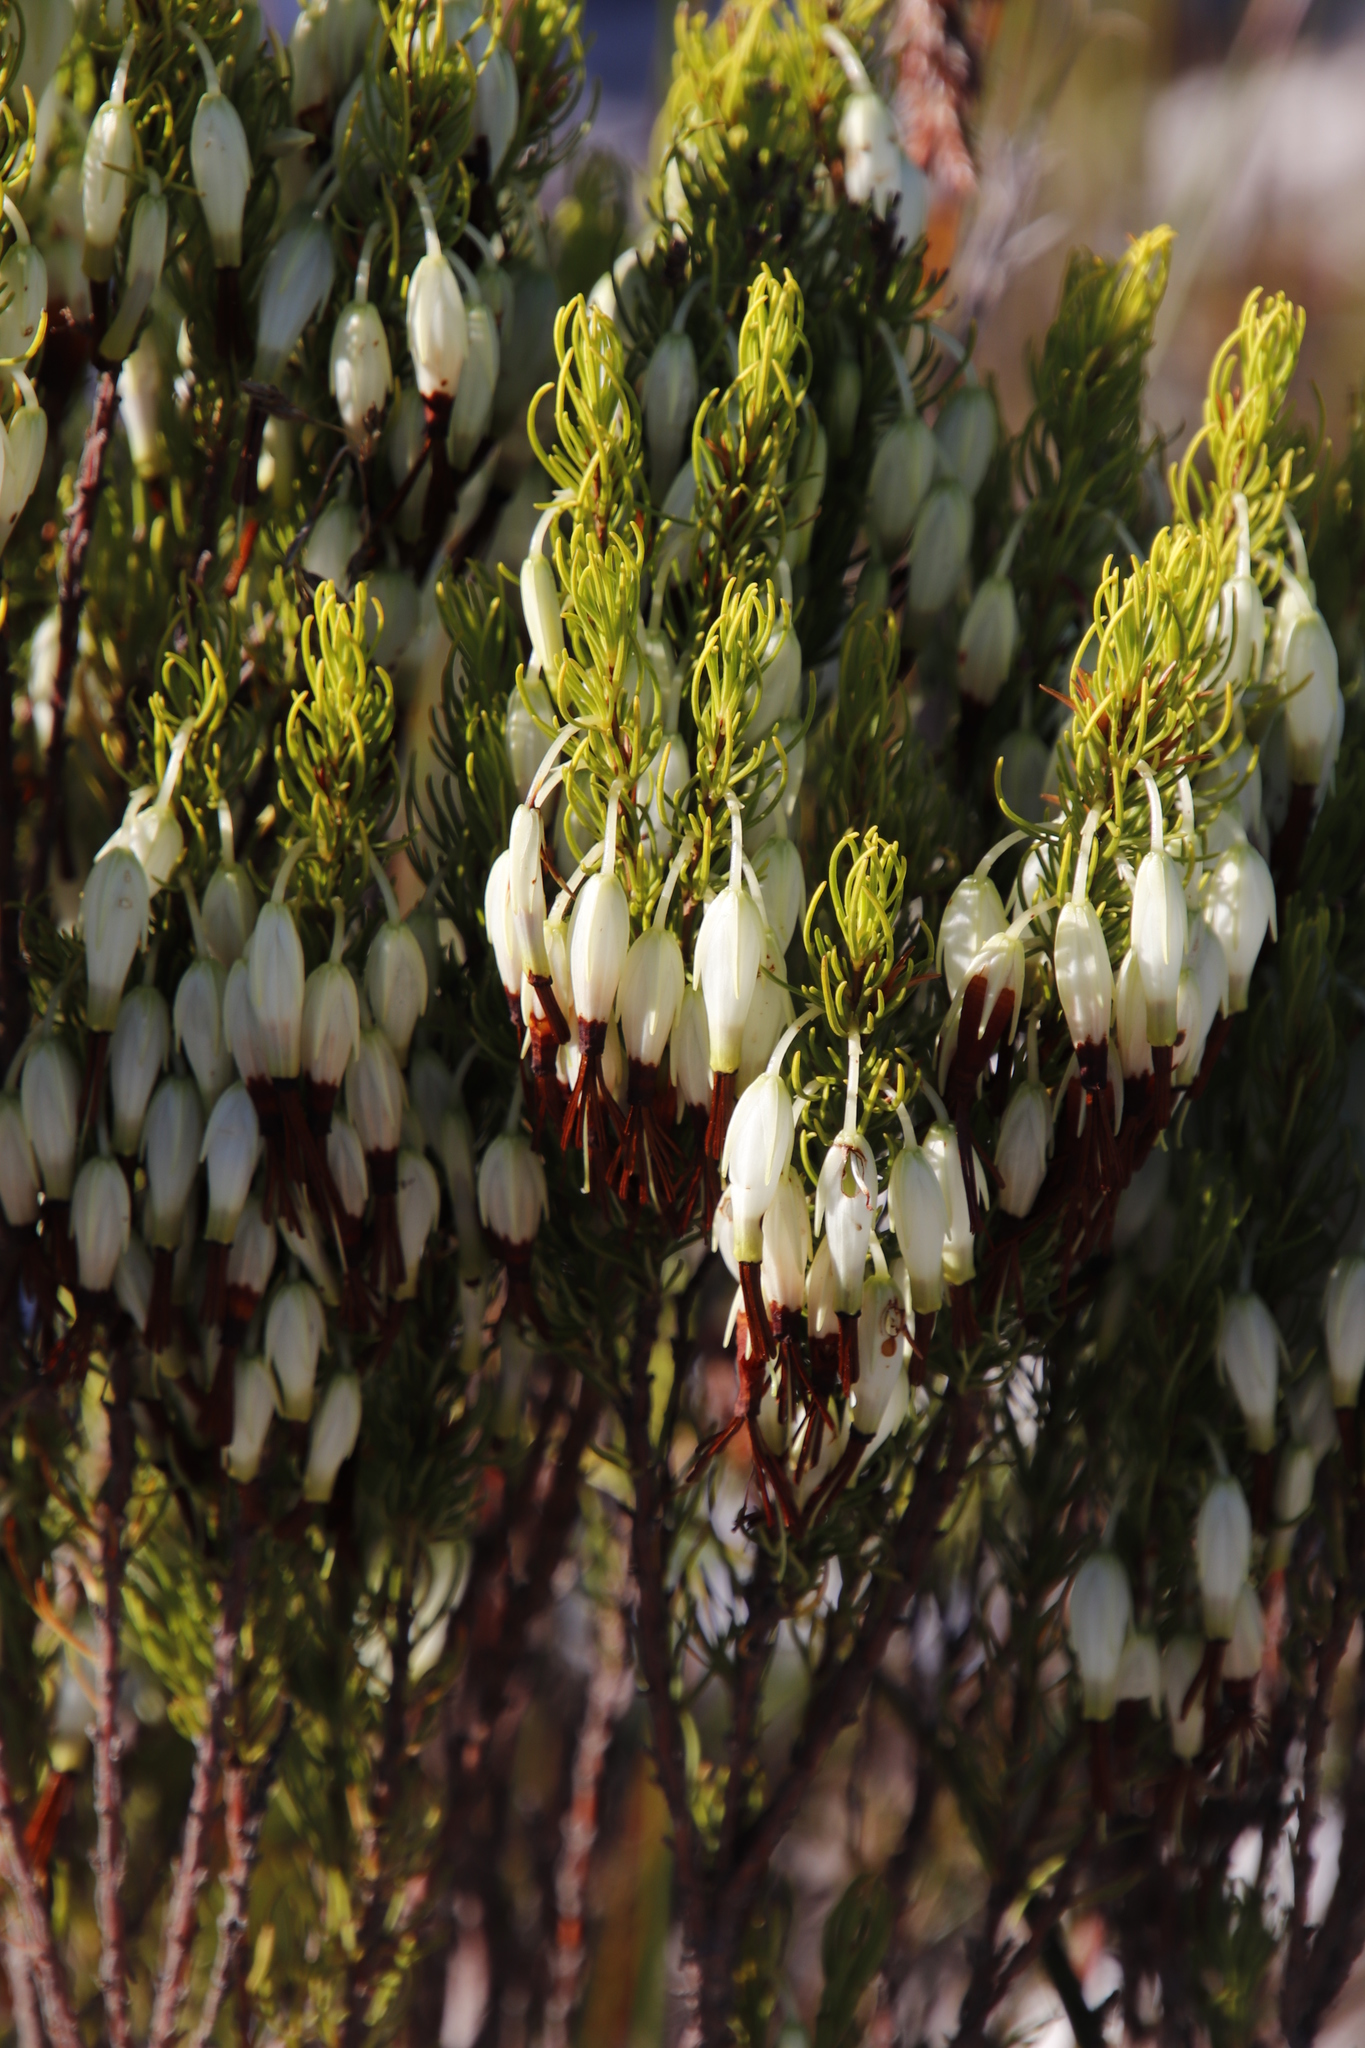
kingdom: Plantae
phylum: Tracheophyta
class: Magnoliopsida
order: Ericales
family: Ericaceae
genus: Erica
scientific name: Erica plukenetii
